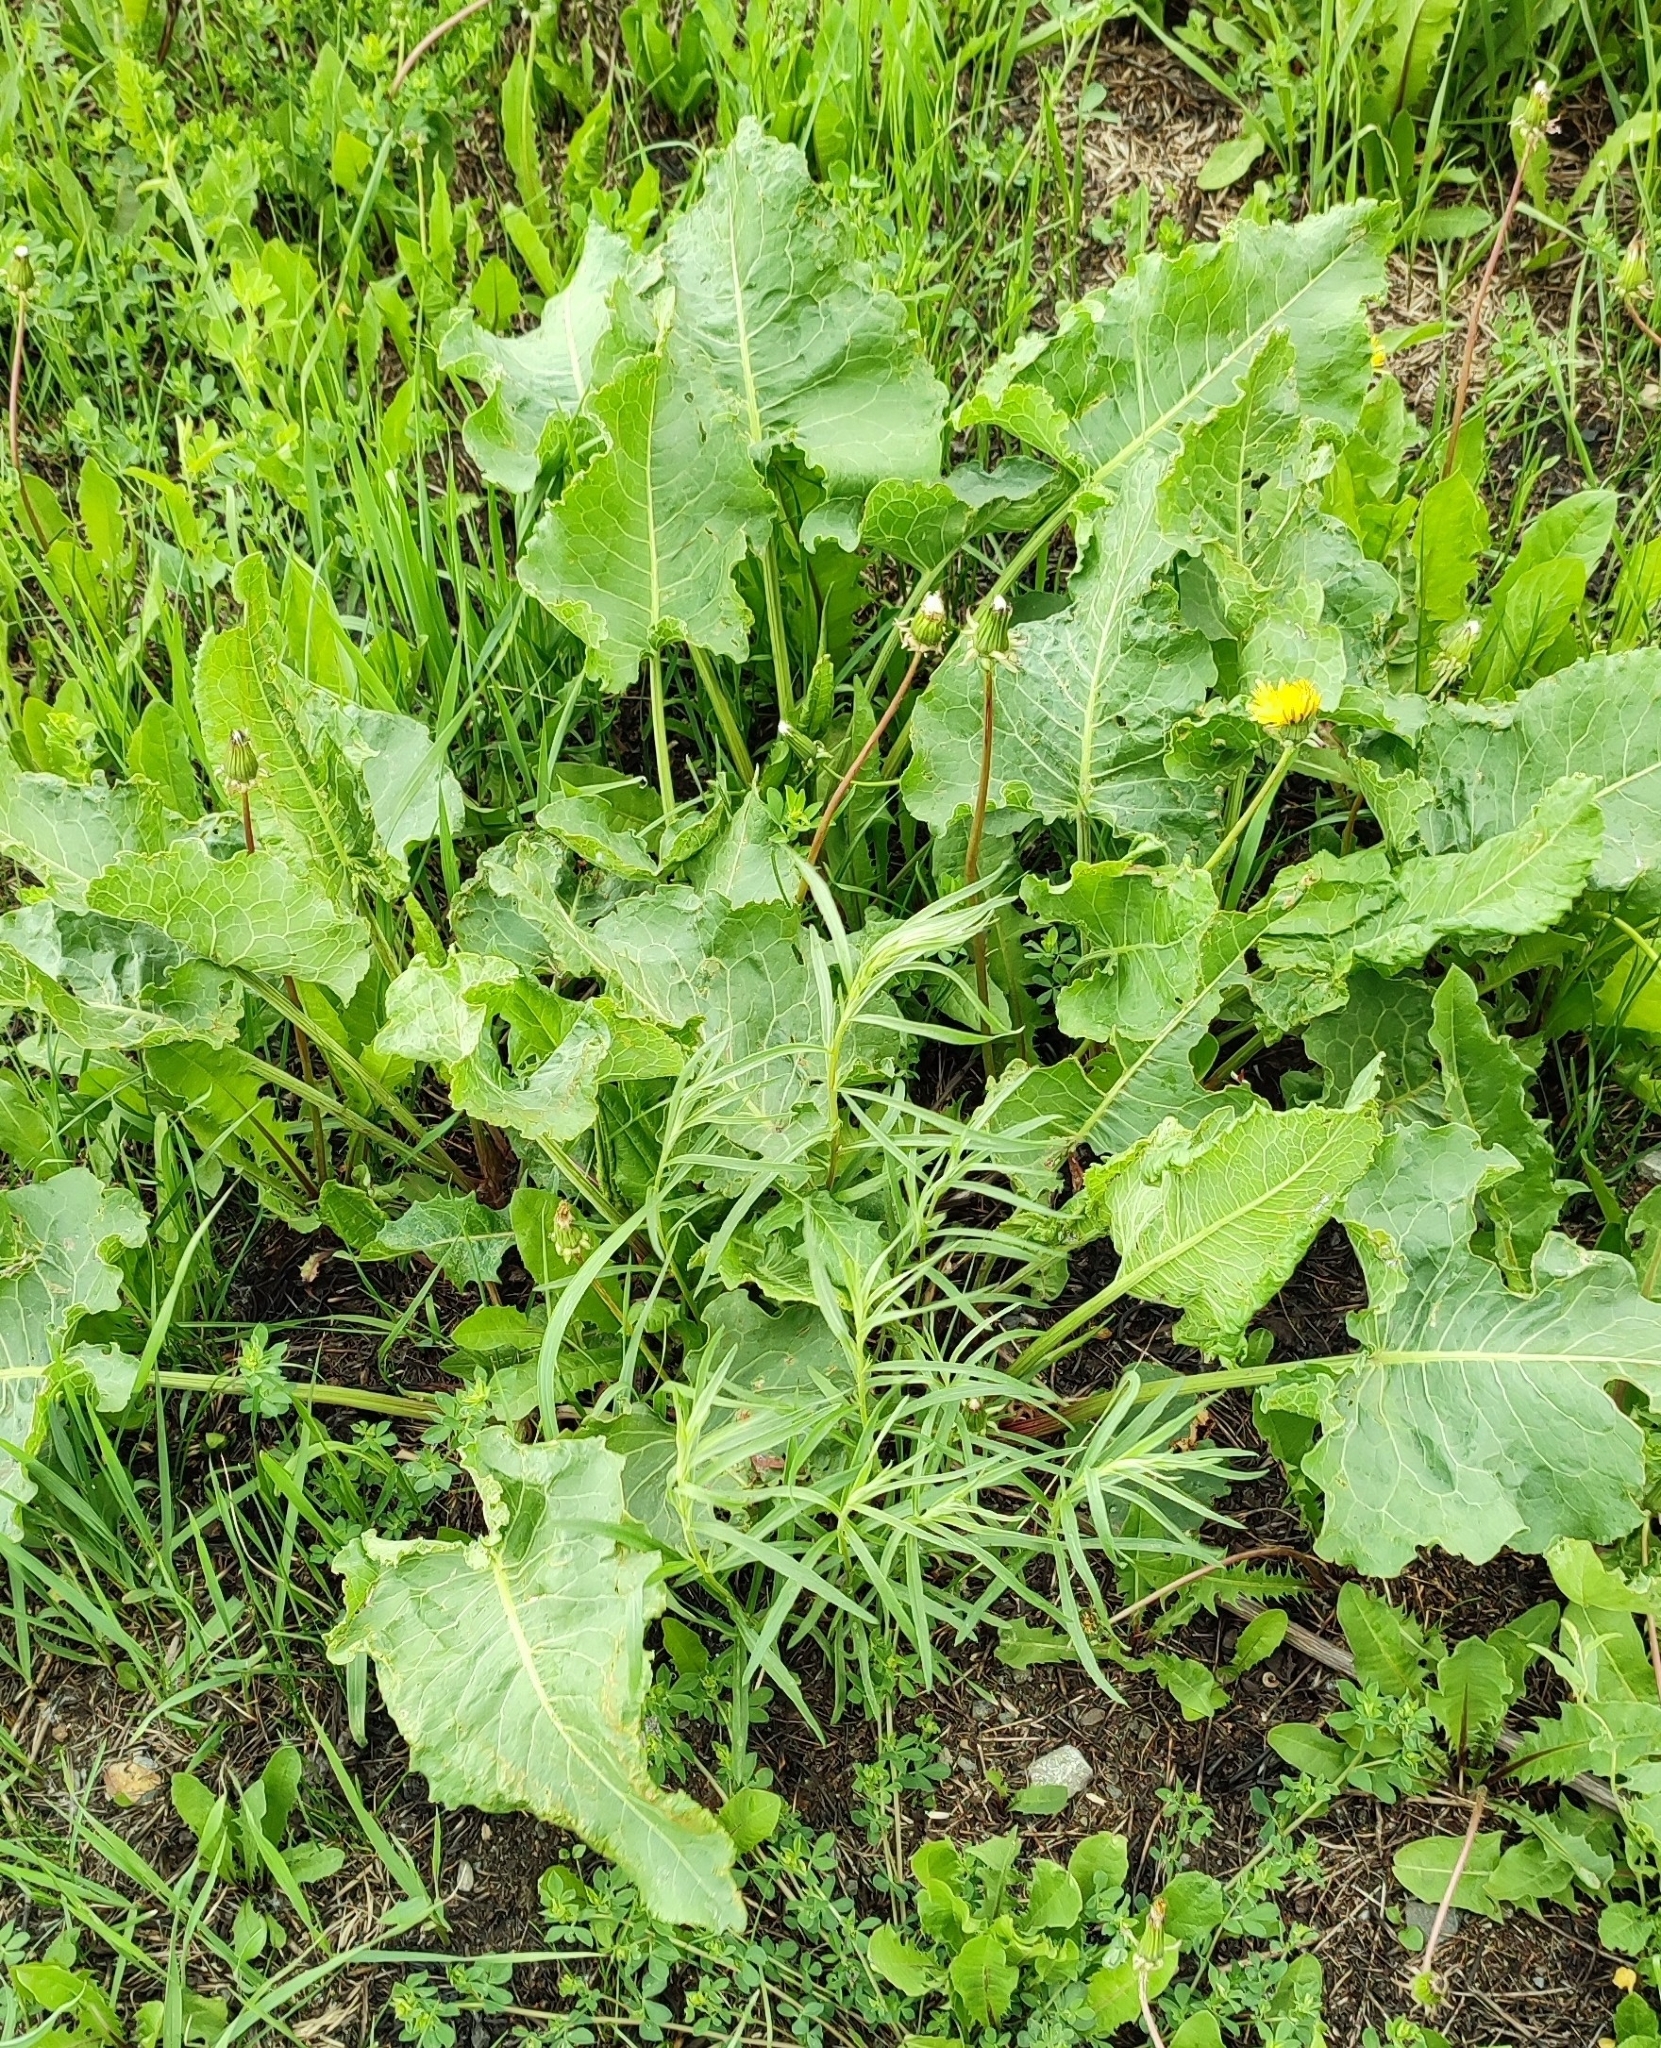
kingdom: Plantae
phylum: Tracheophyta
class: Magnoliopsida
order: Caryophyllales
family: Polygonaceae
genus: Rumex
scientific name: Rumex confertus
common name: Russian dock
